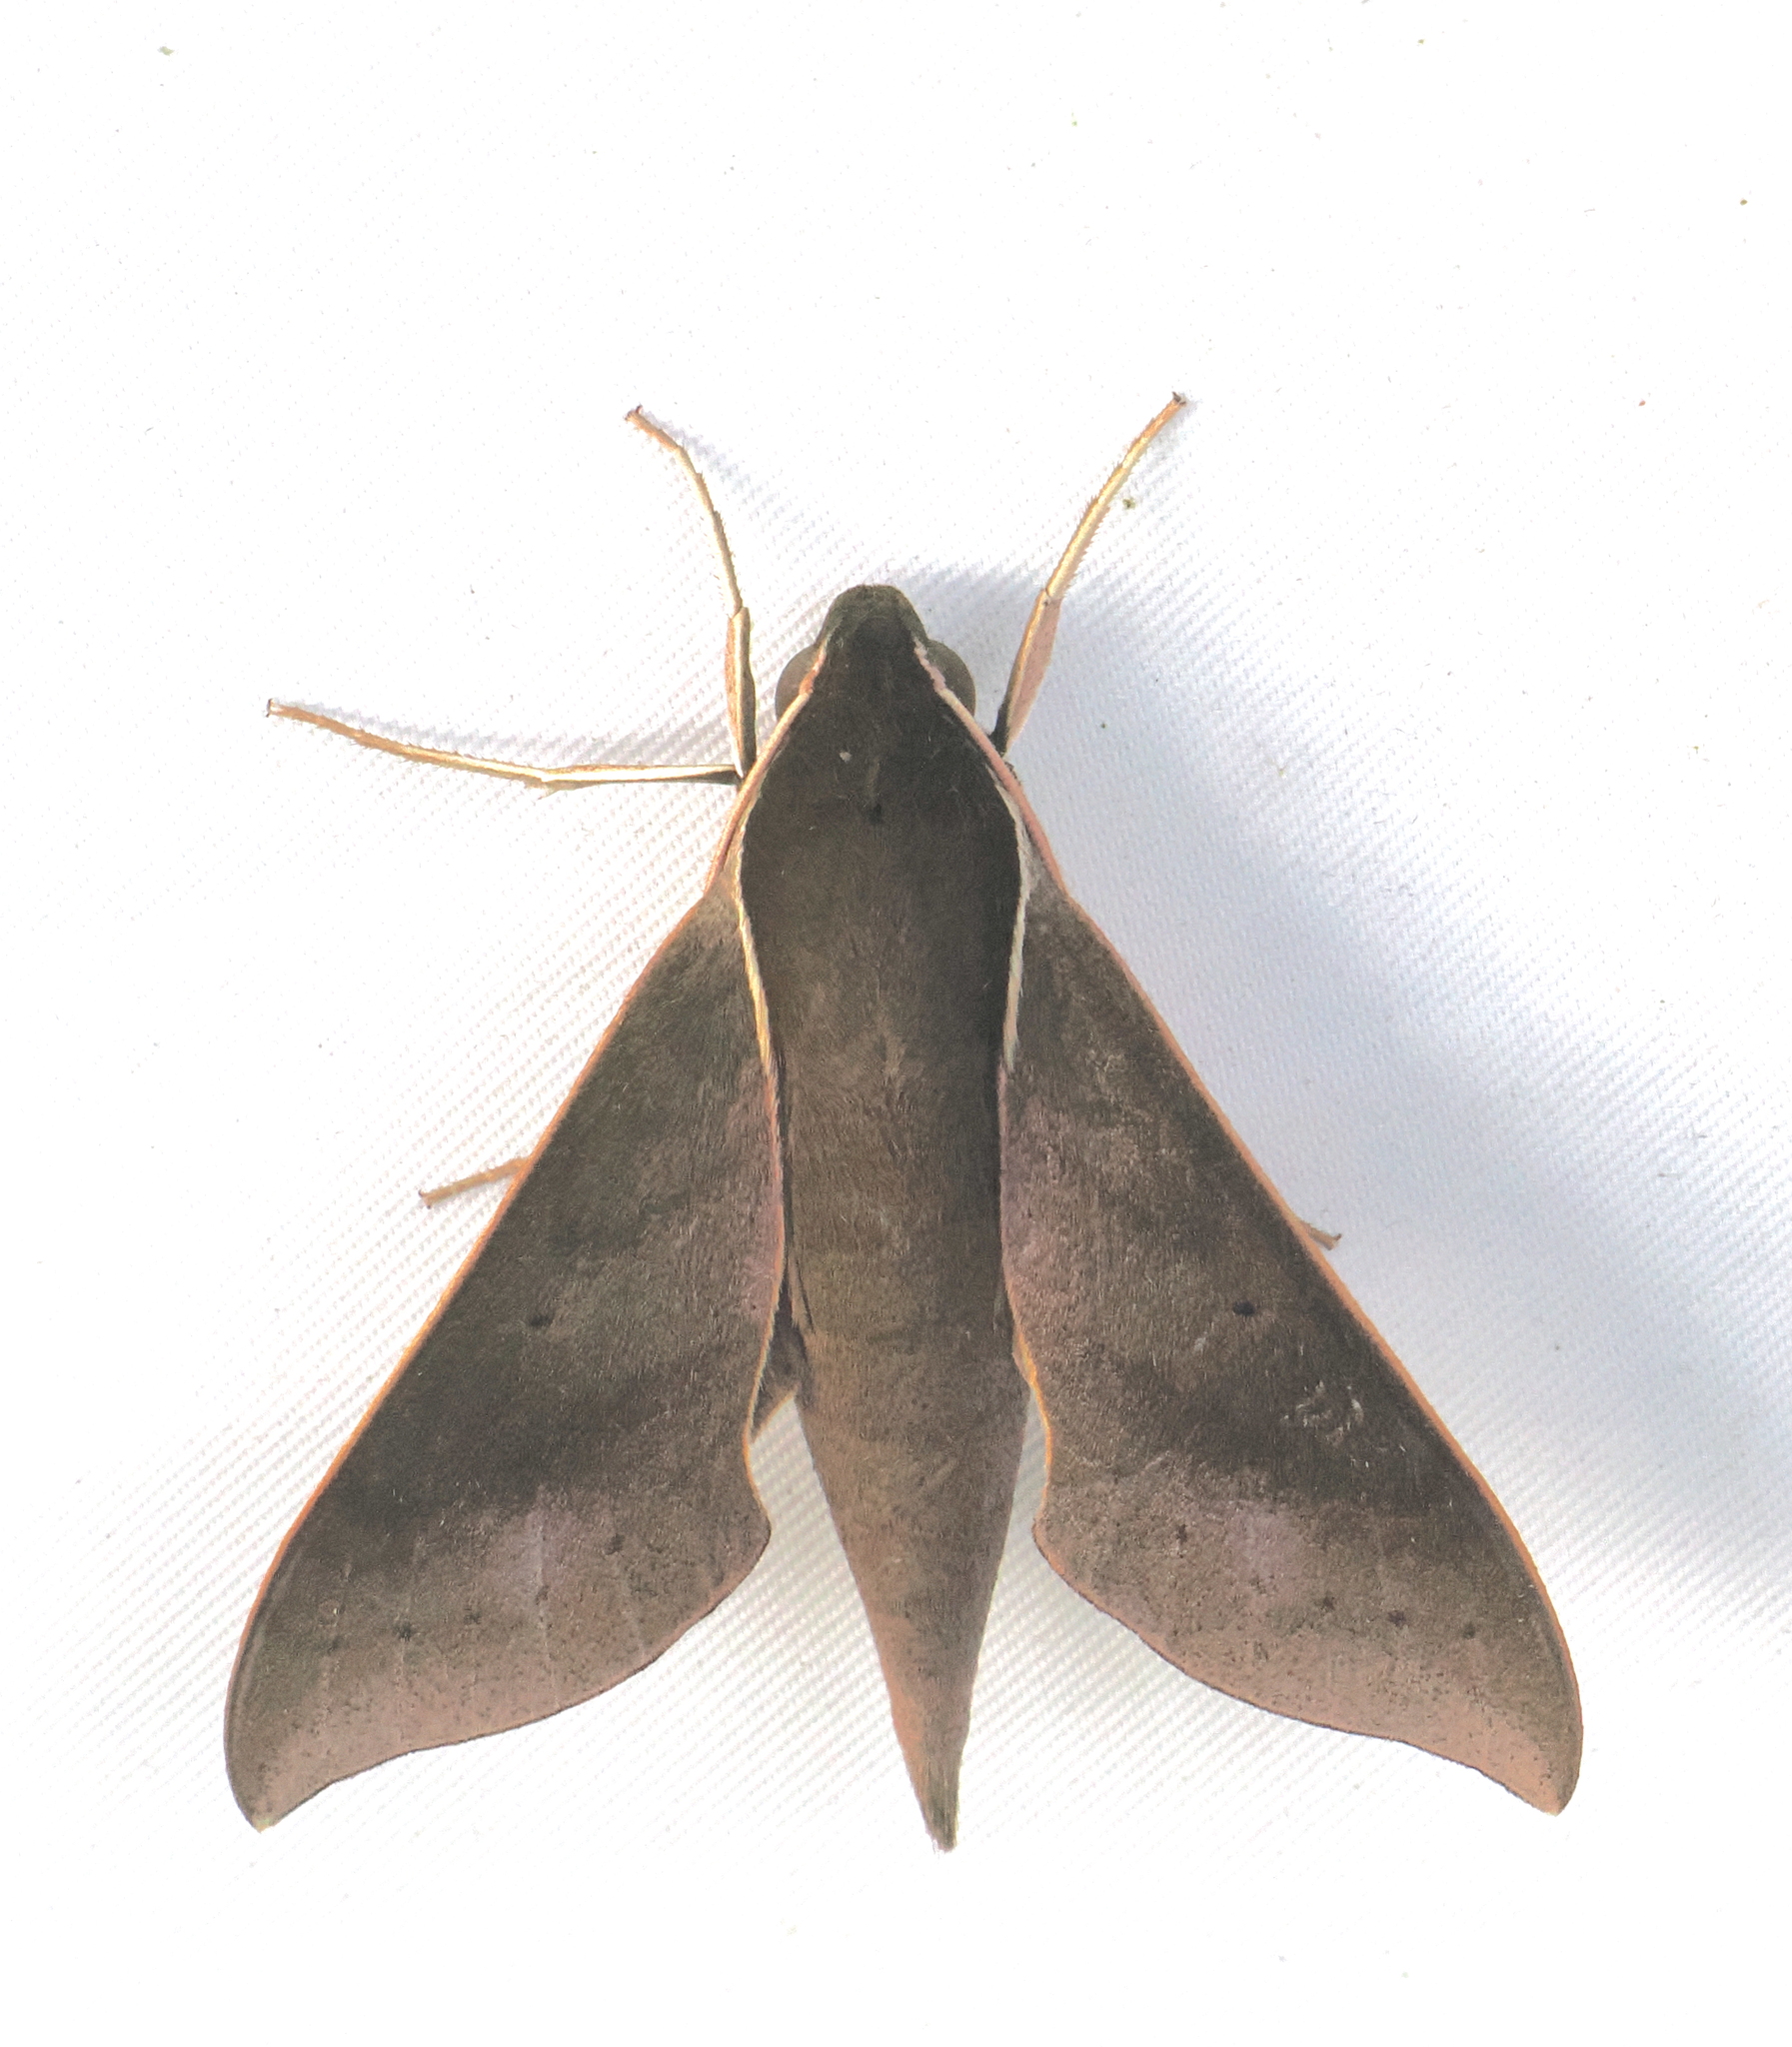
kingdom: Animalia
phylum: Arthropoda
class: Insecta
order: Lepidoptera
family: Sphingidae
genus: Xylophanes
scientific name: Xylophanes porcus
